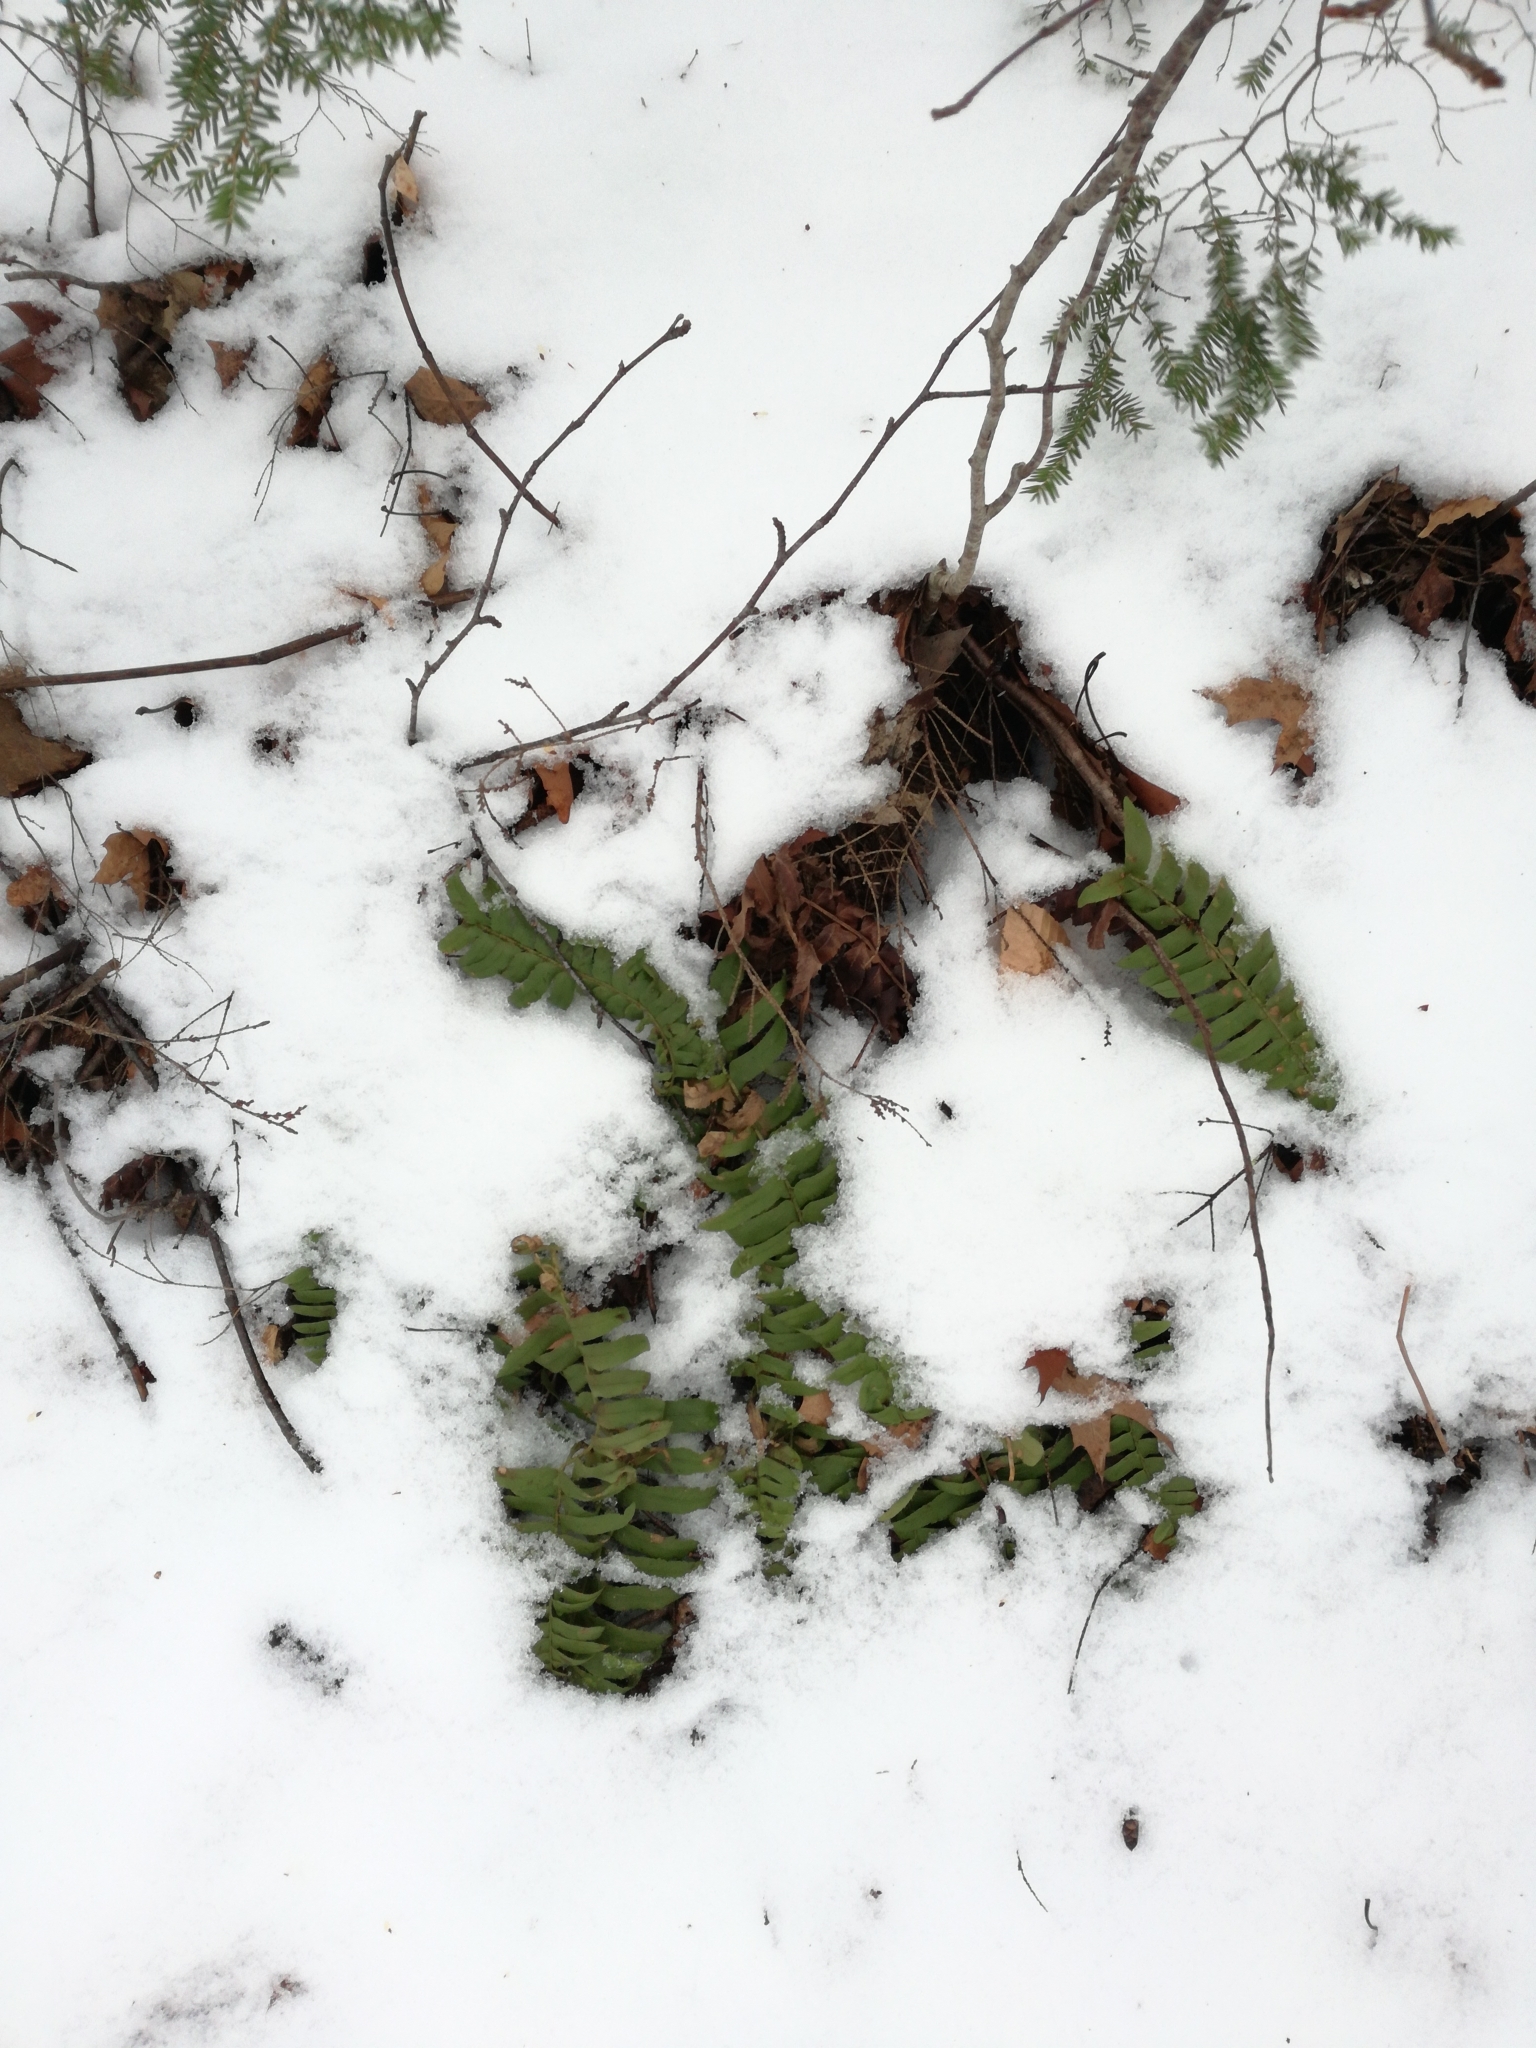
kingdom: Plantae
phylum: Tracheophyta
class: Polypodiopsida
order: Polypodiales
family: Dryopteridaceae
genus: Polystichum
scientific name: Polystichum acrostichoides
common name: Christmas fern
